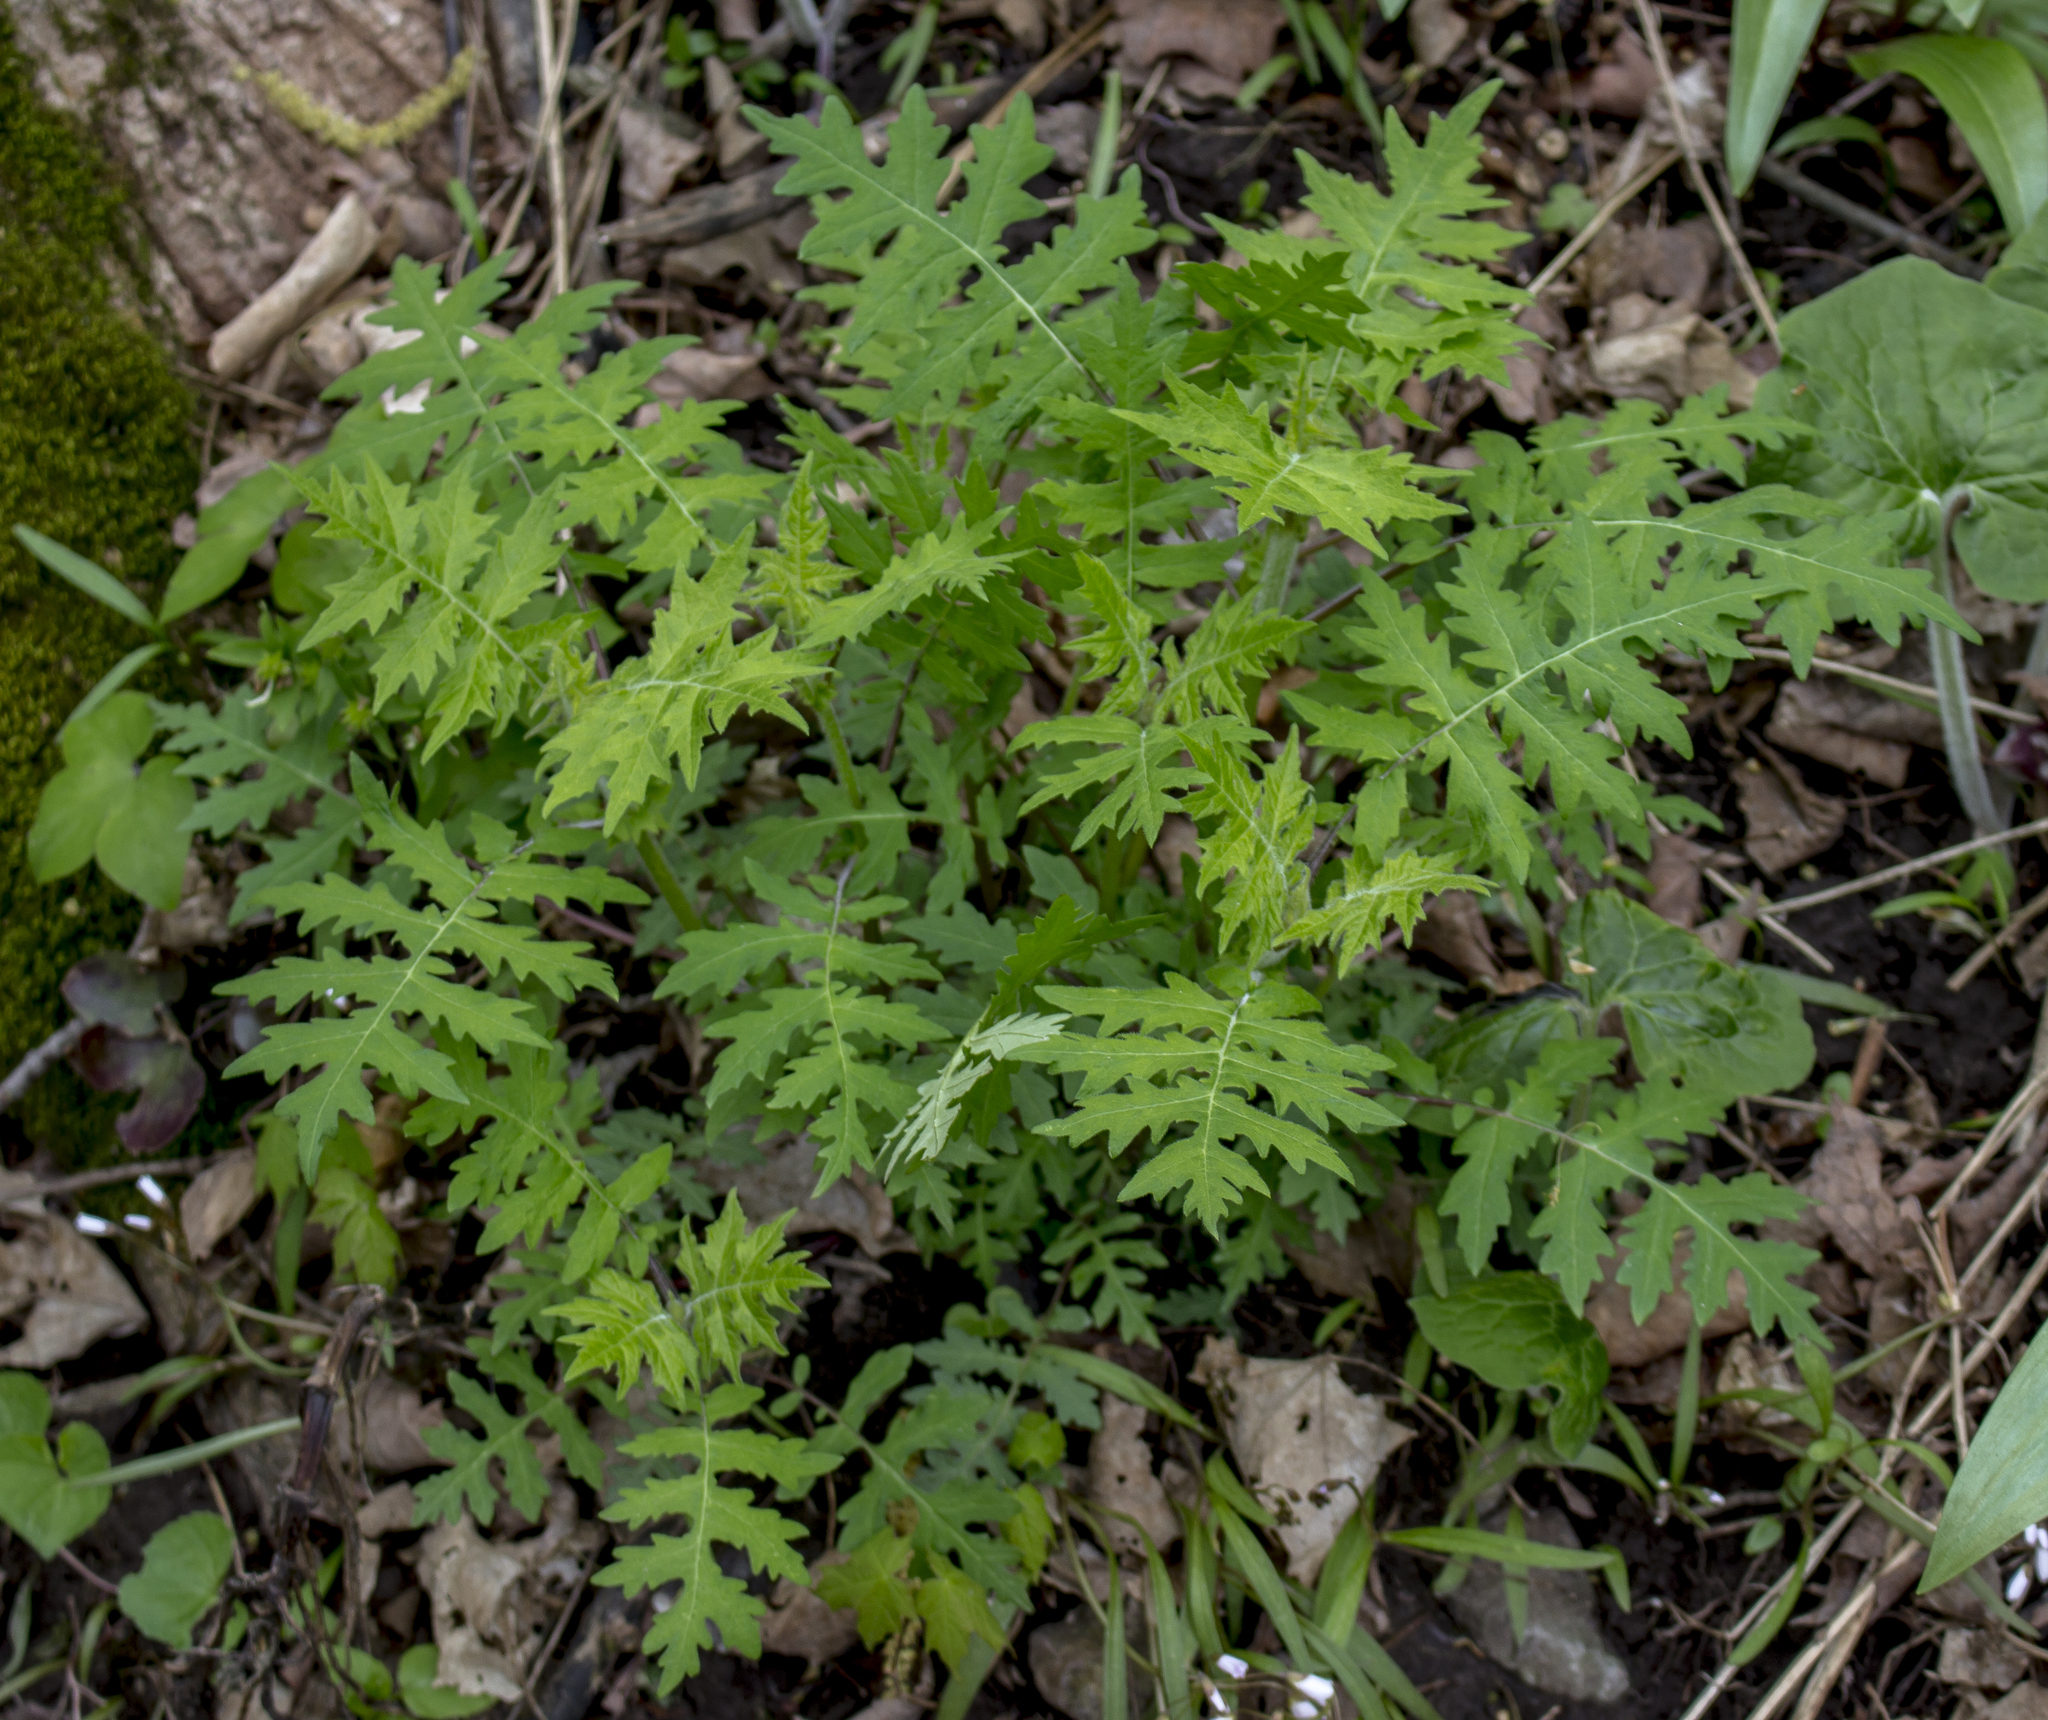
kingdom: Plantae
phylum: Tracheophyta
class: Magnoliopsida
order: Asterales
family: Asteraceae
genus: Polymnia
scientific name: Polymnia canadensis
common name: Pale-flowered leafcup
